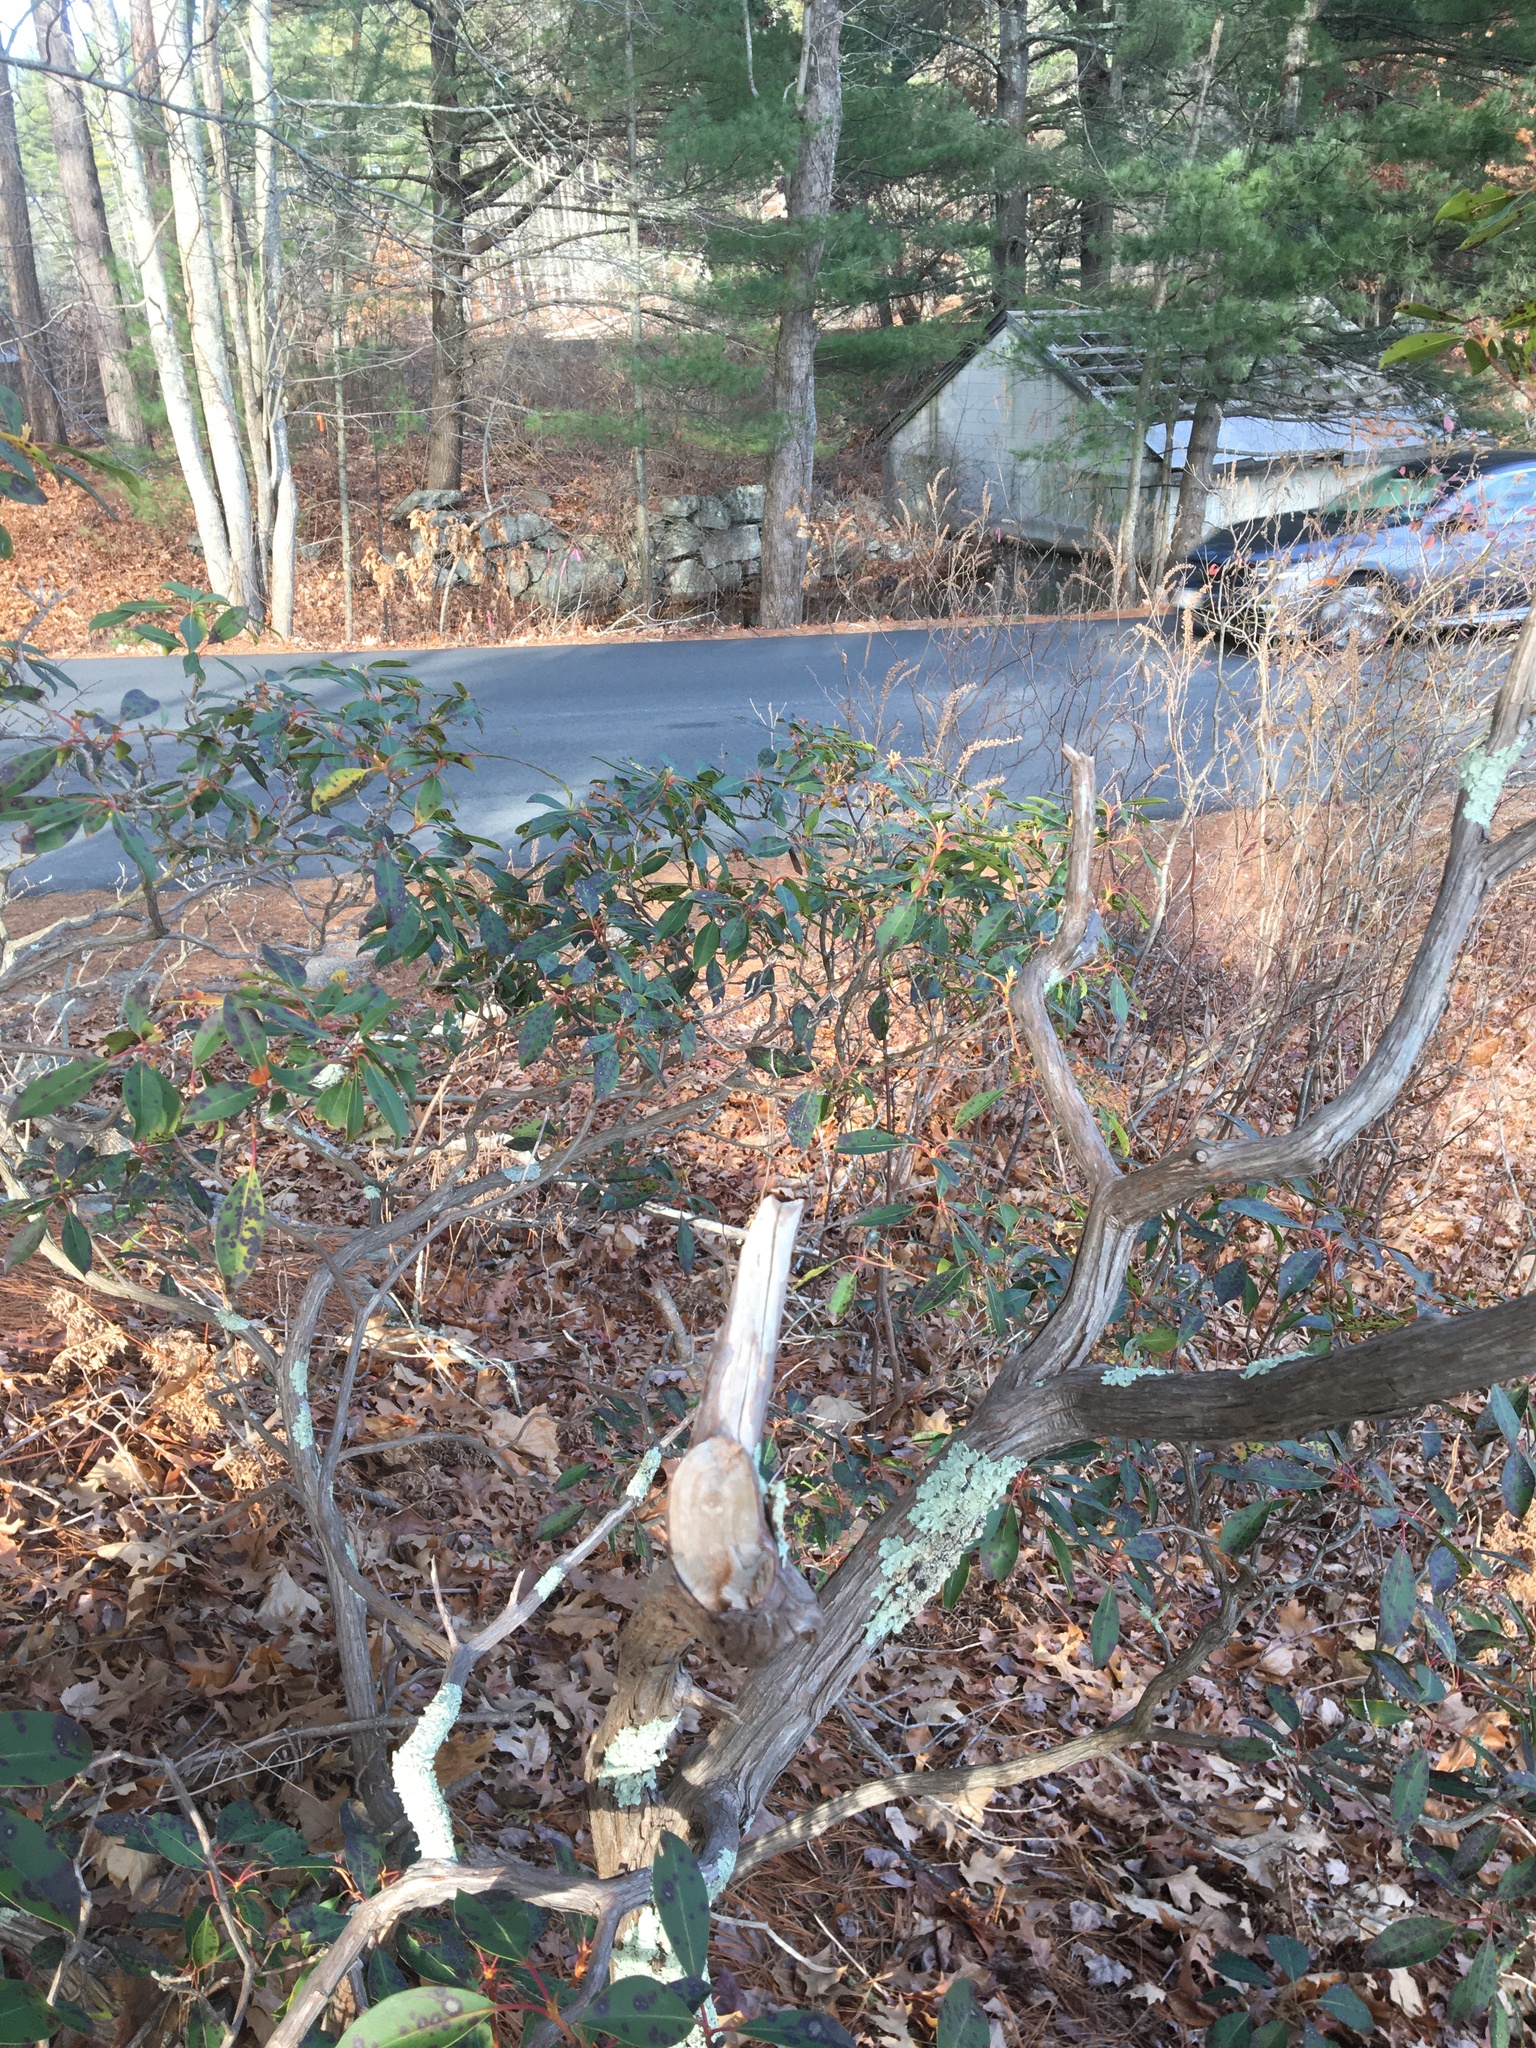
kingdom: Plantae
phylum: Tracheophyta
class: Magnoliopsida
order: Ericales
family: Ericaceae
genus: Kalmia
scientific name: Kalmia latifolia
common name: Mountain-laurel
